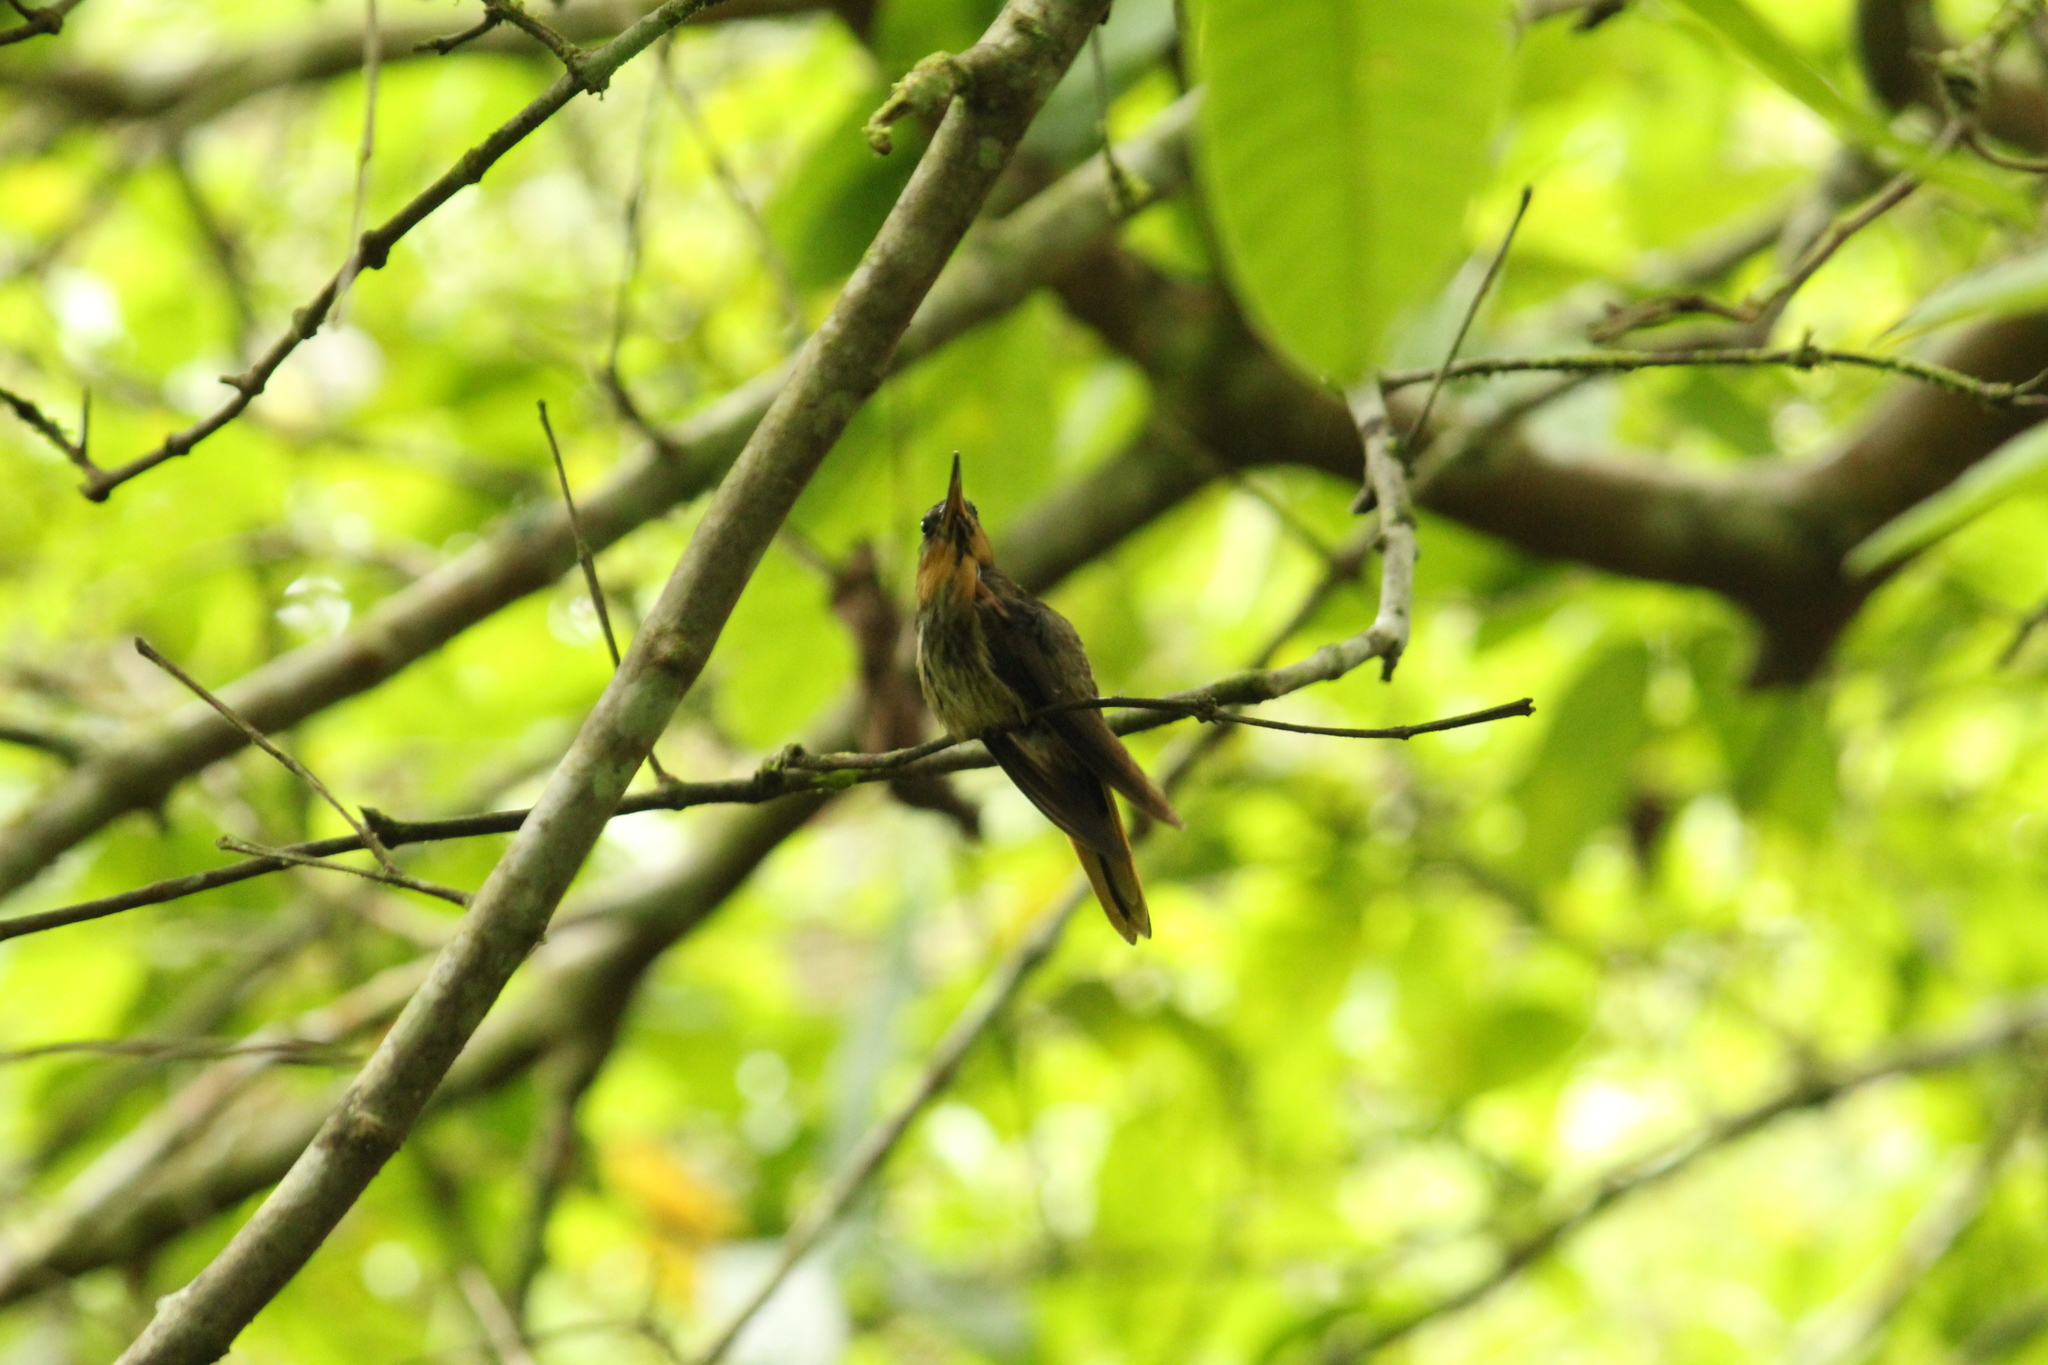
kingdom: Animalia
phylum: Chordata
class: Aves
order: Apodiformes
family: Trochilidae
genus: Ramphodon
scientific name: Ramphodon naevius
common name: Saw-billed hermit
